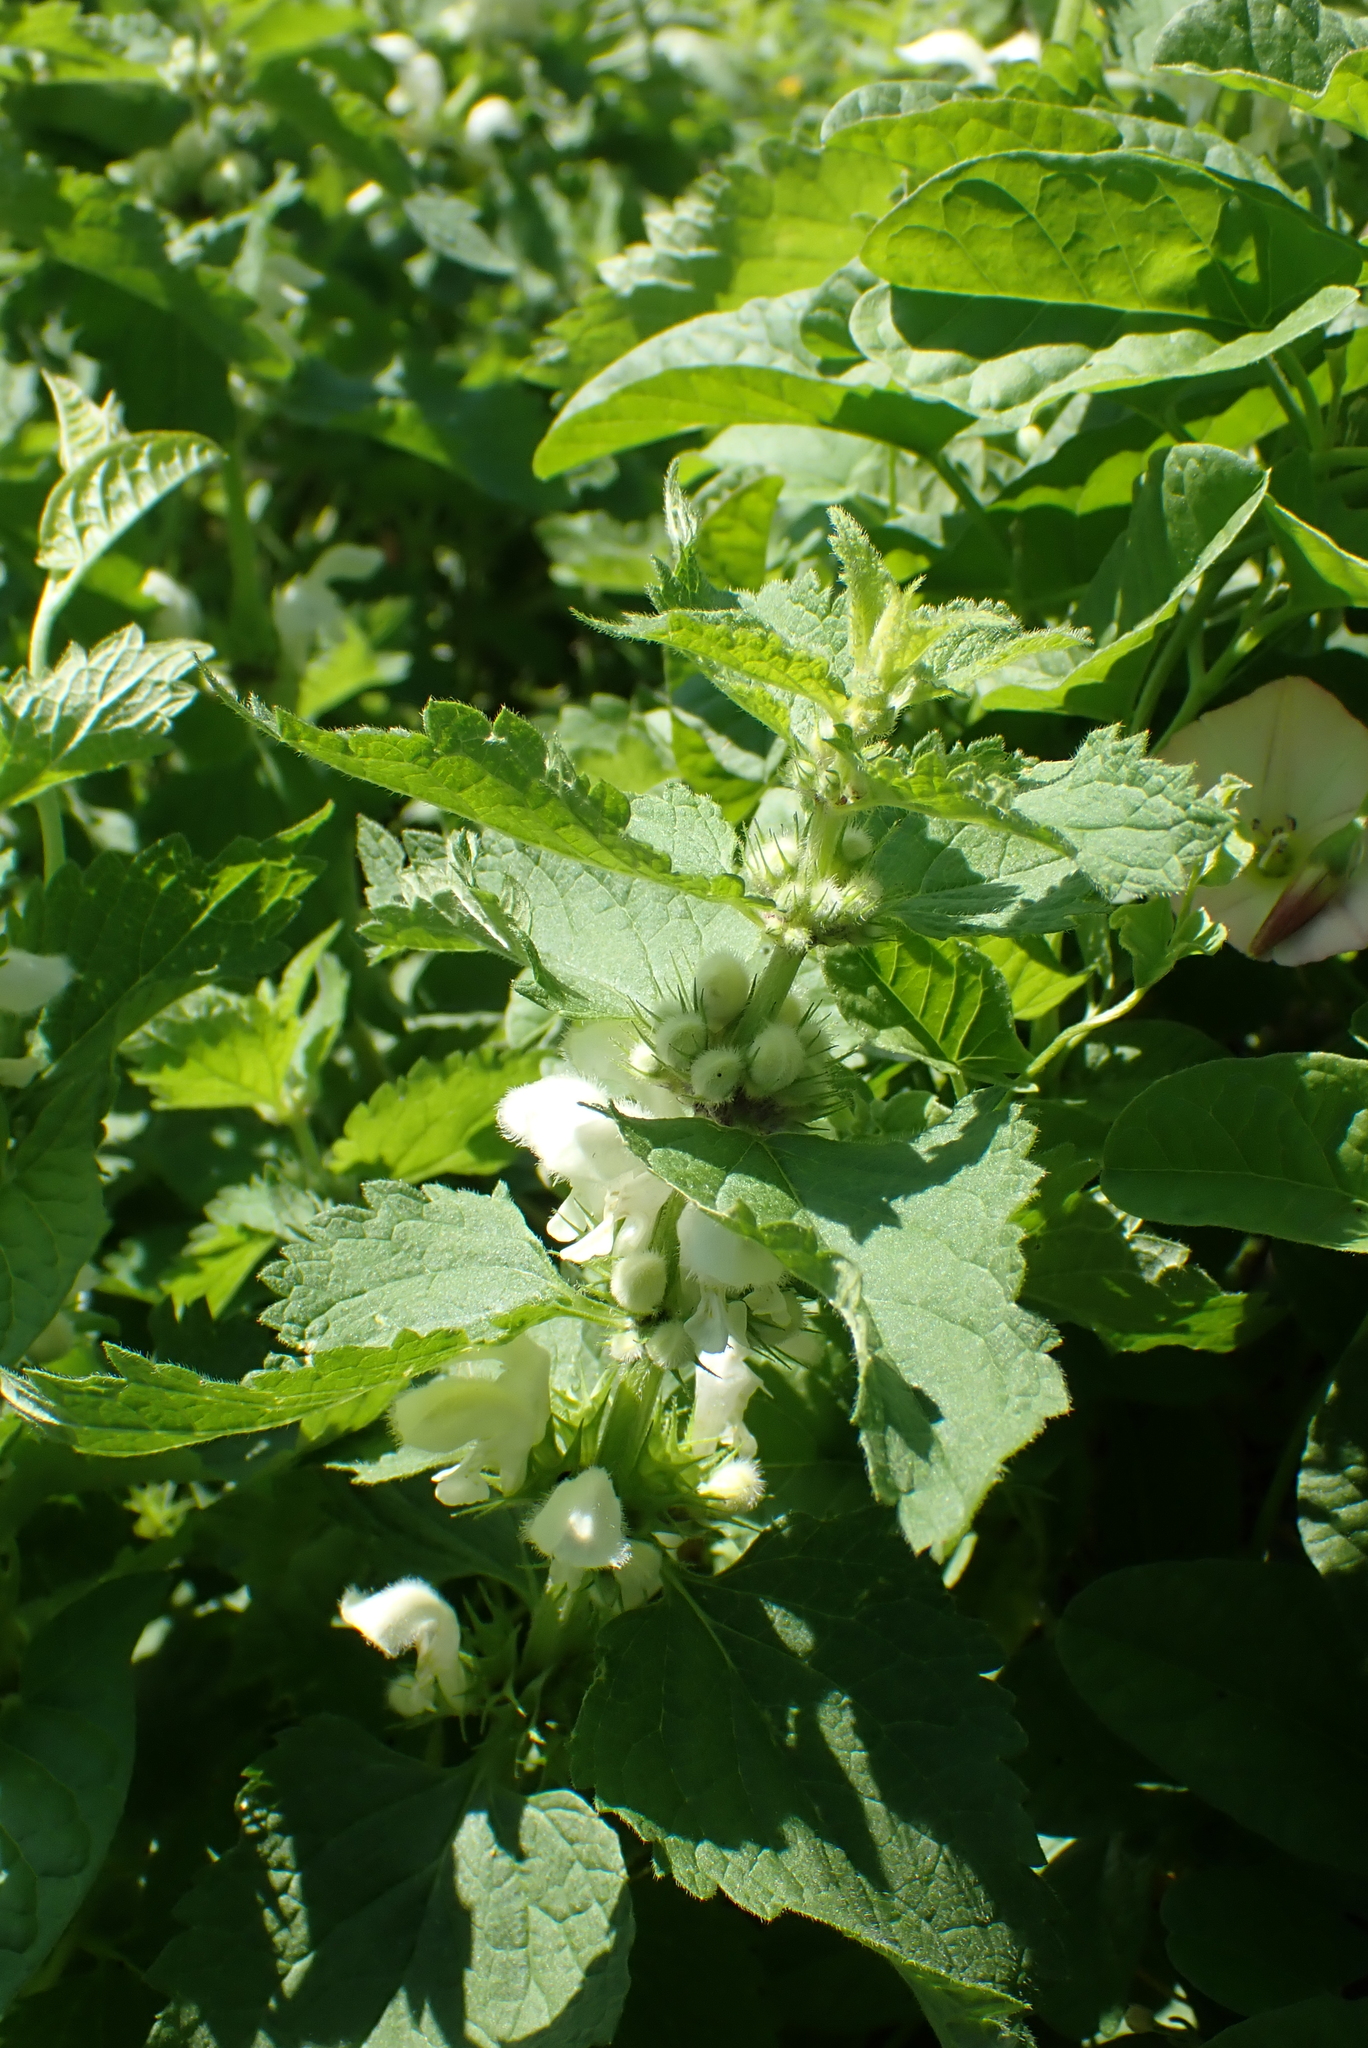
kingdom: Plantae
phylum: Tracheophyta
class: Magnoliopsida
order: Lamiales
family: Lamiaceae
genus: Lamium
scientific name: Lamium album
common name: White dead-nettle
